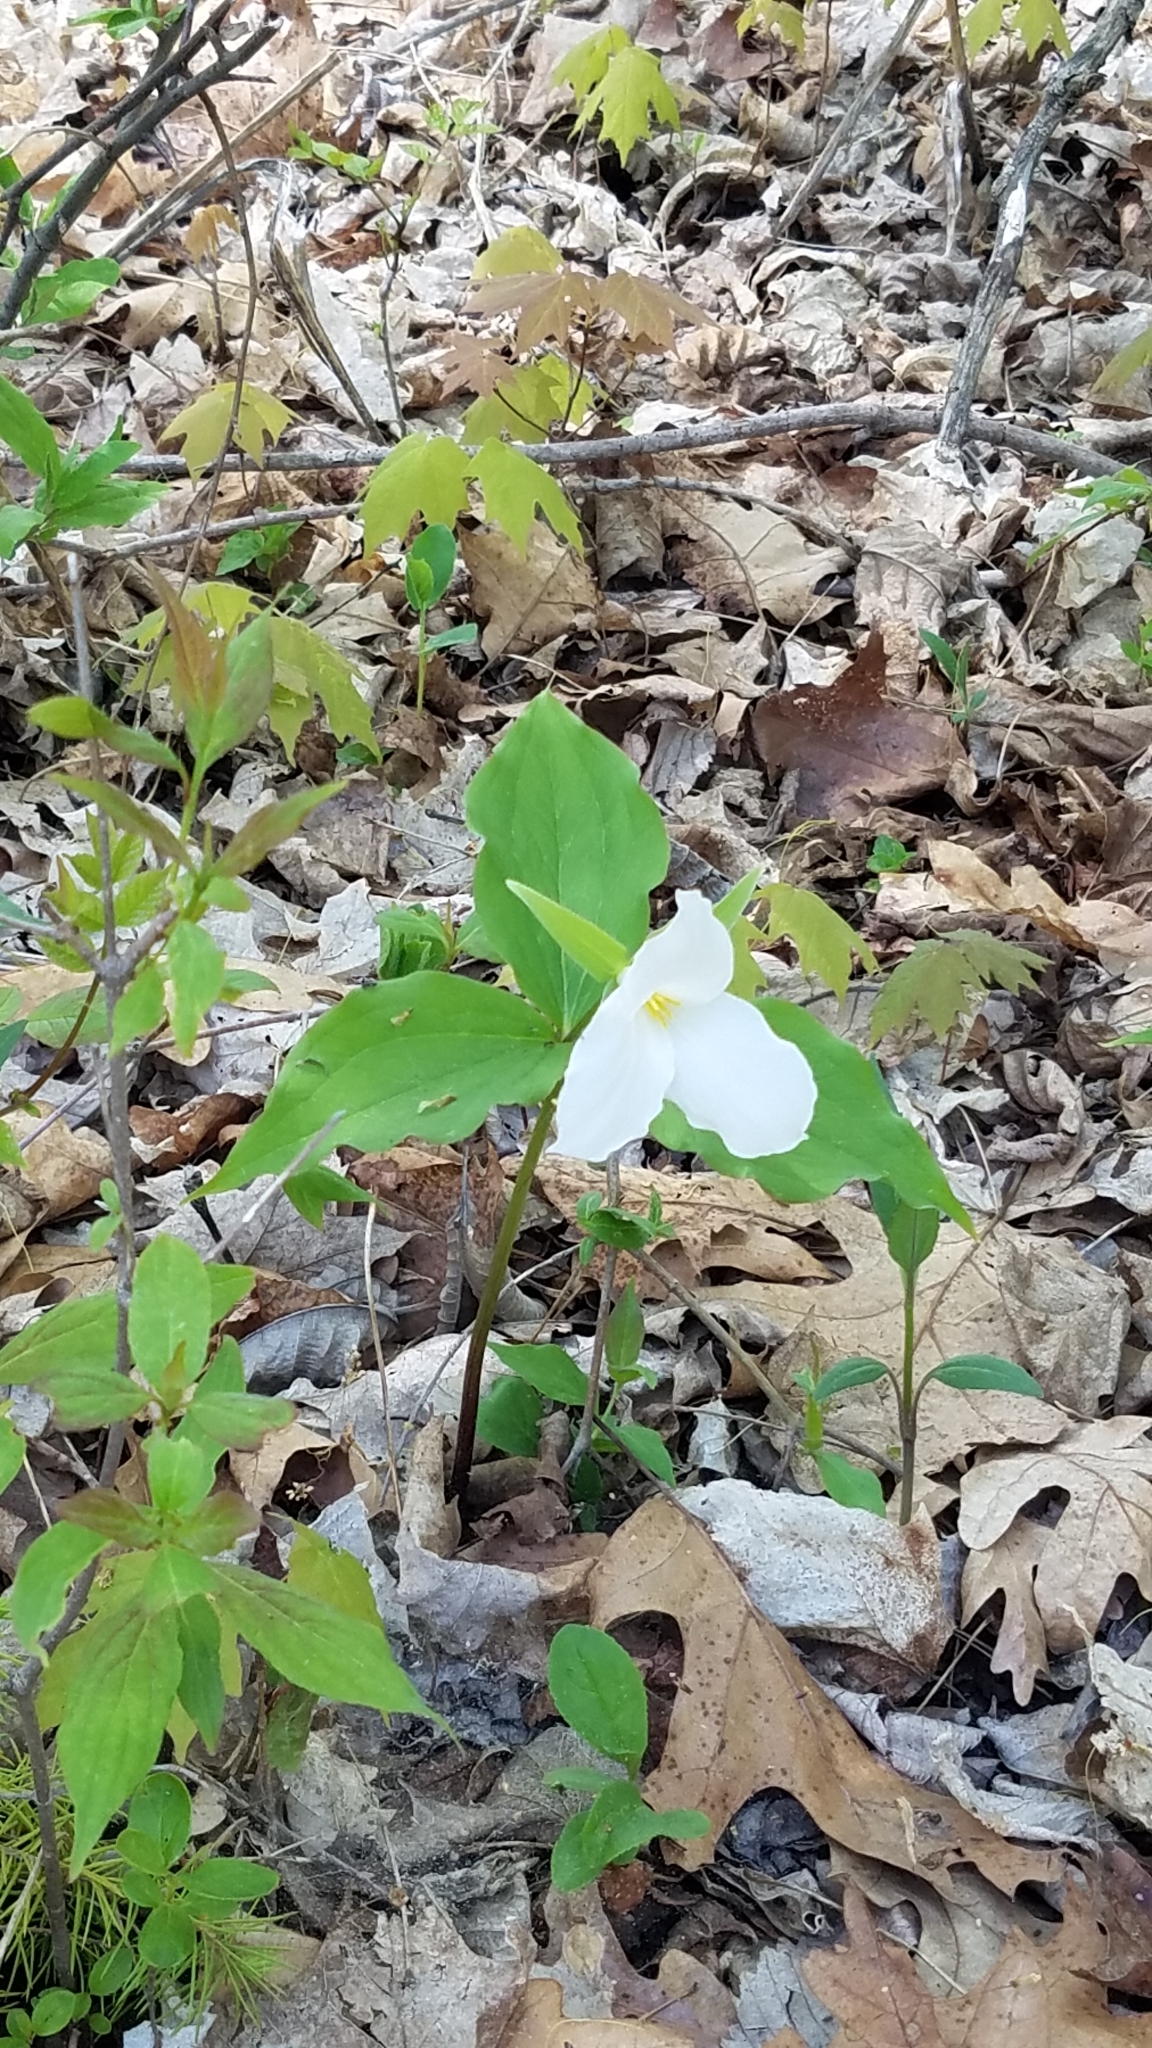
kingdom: Plantae
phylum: Tracheophyta
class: Liliopsida
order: Liliales
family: Melanthiaceae
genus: Trillium
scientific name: Trillium grandiflorum
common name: Great white trillium
